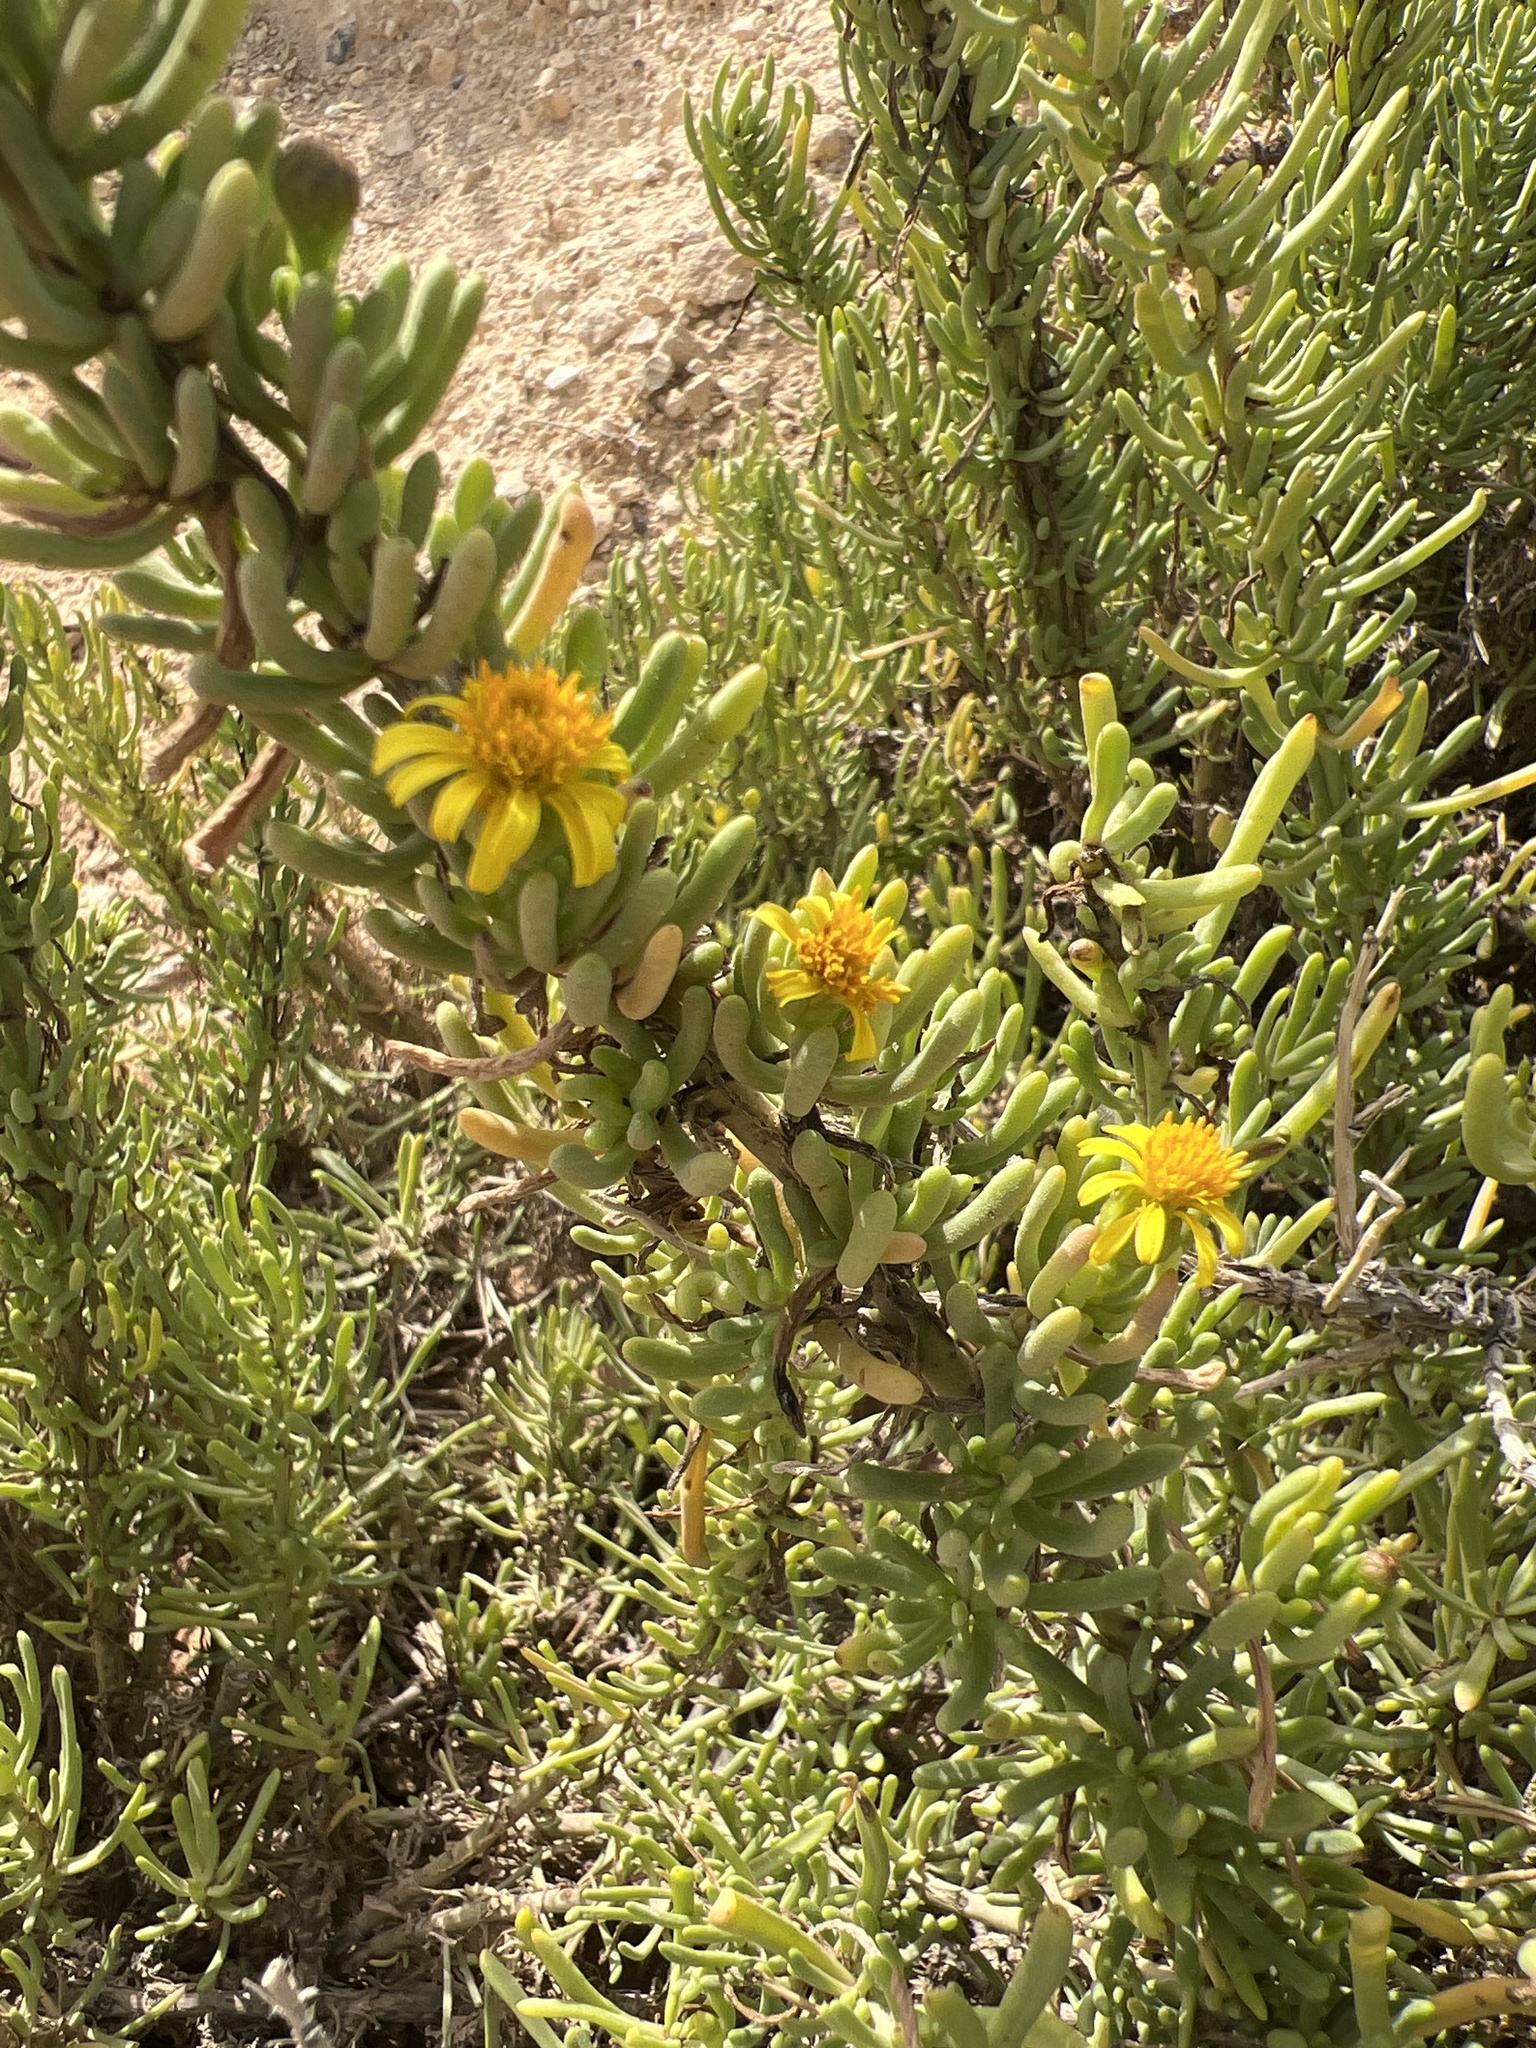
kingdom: Plantae
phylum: Tracheophyta
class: Magnoliopsida
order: Asterales
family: Asteraceae
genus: Limbarda
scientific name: Limbarda crithmoides
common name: Golden samphire
